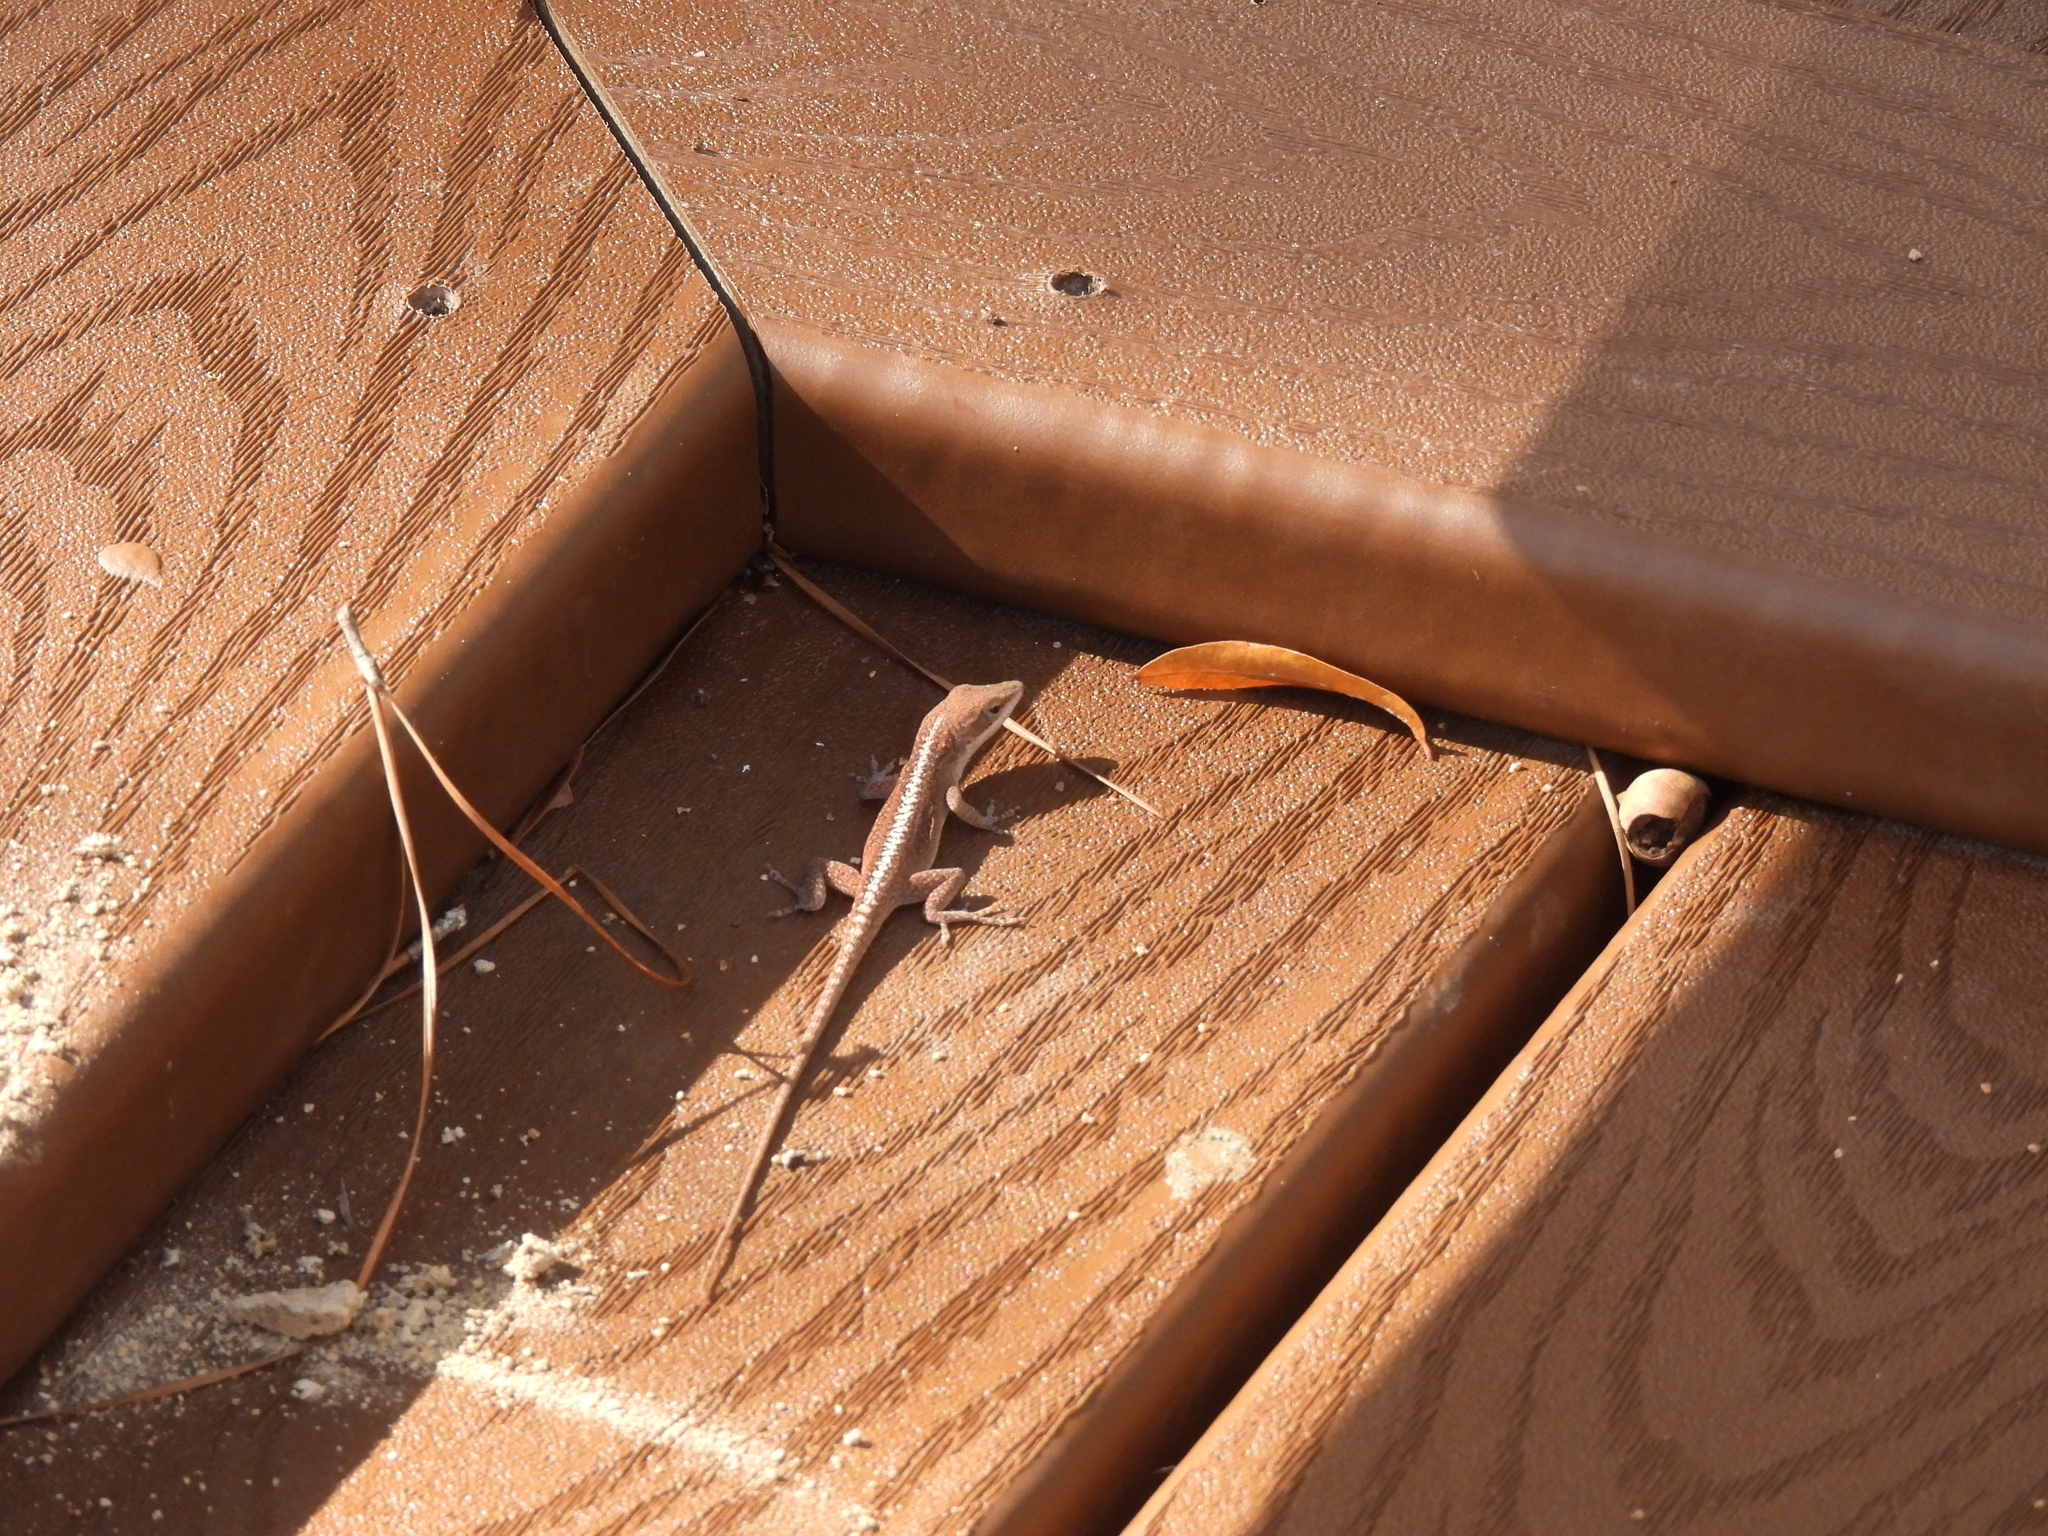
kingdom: Animalia
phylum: Chordata
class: Squamata
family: Dactyloidae
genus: Anolis
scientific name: Anolis carolinensis
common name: Green anole
